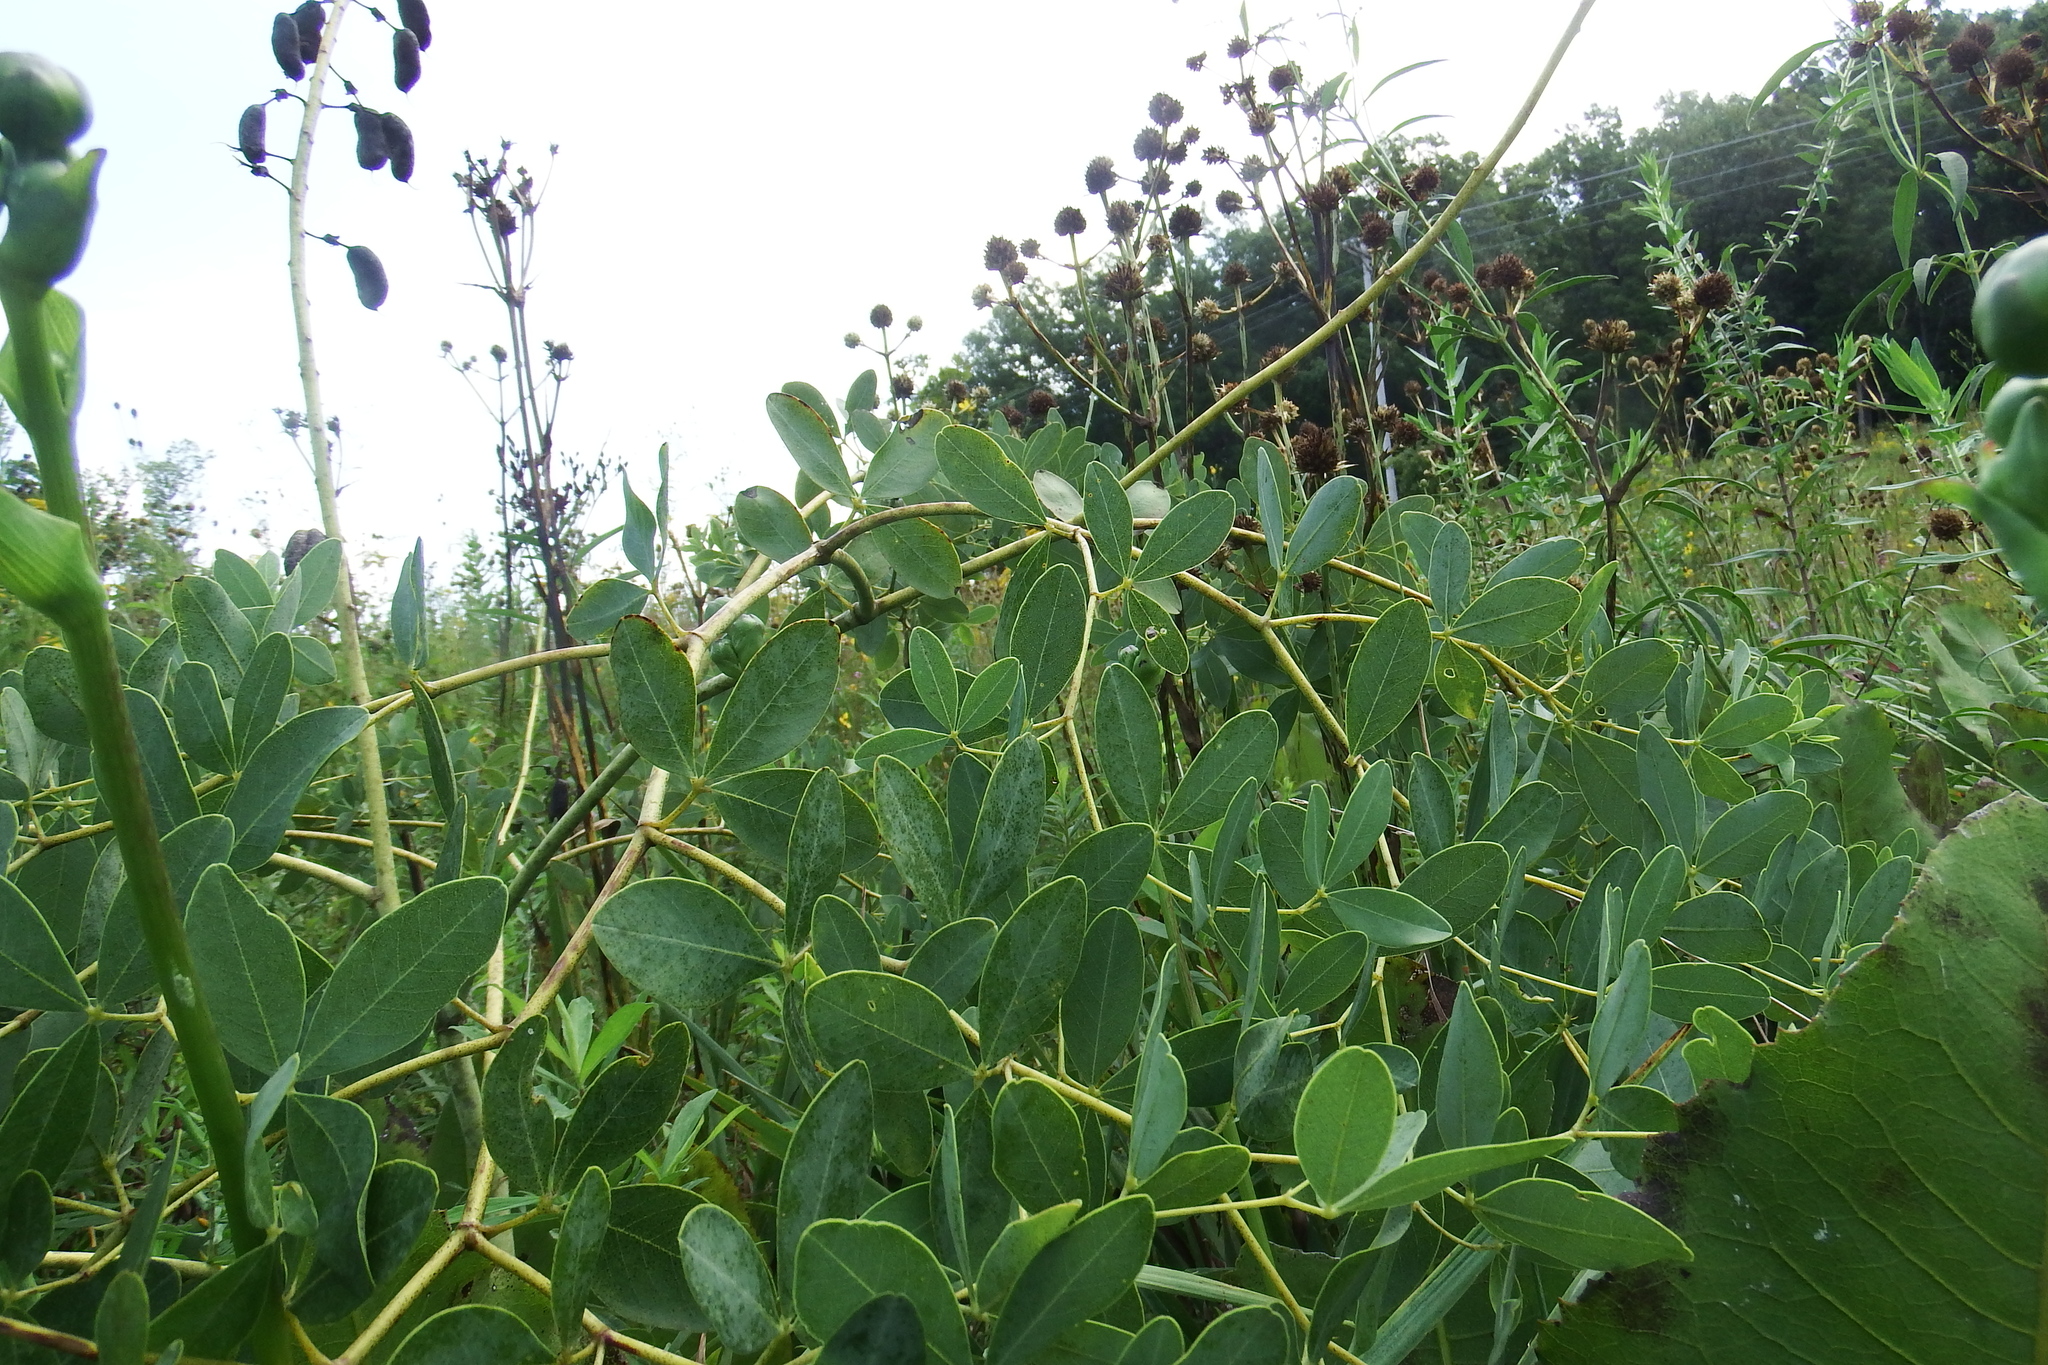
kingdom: Plantae
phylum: Tracheophyta
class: Magnoliopsida
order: Fabales
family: Fabaceae
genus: Baptisia
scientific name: Baptisia alba
